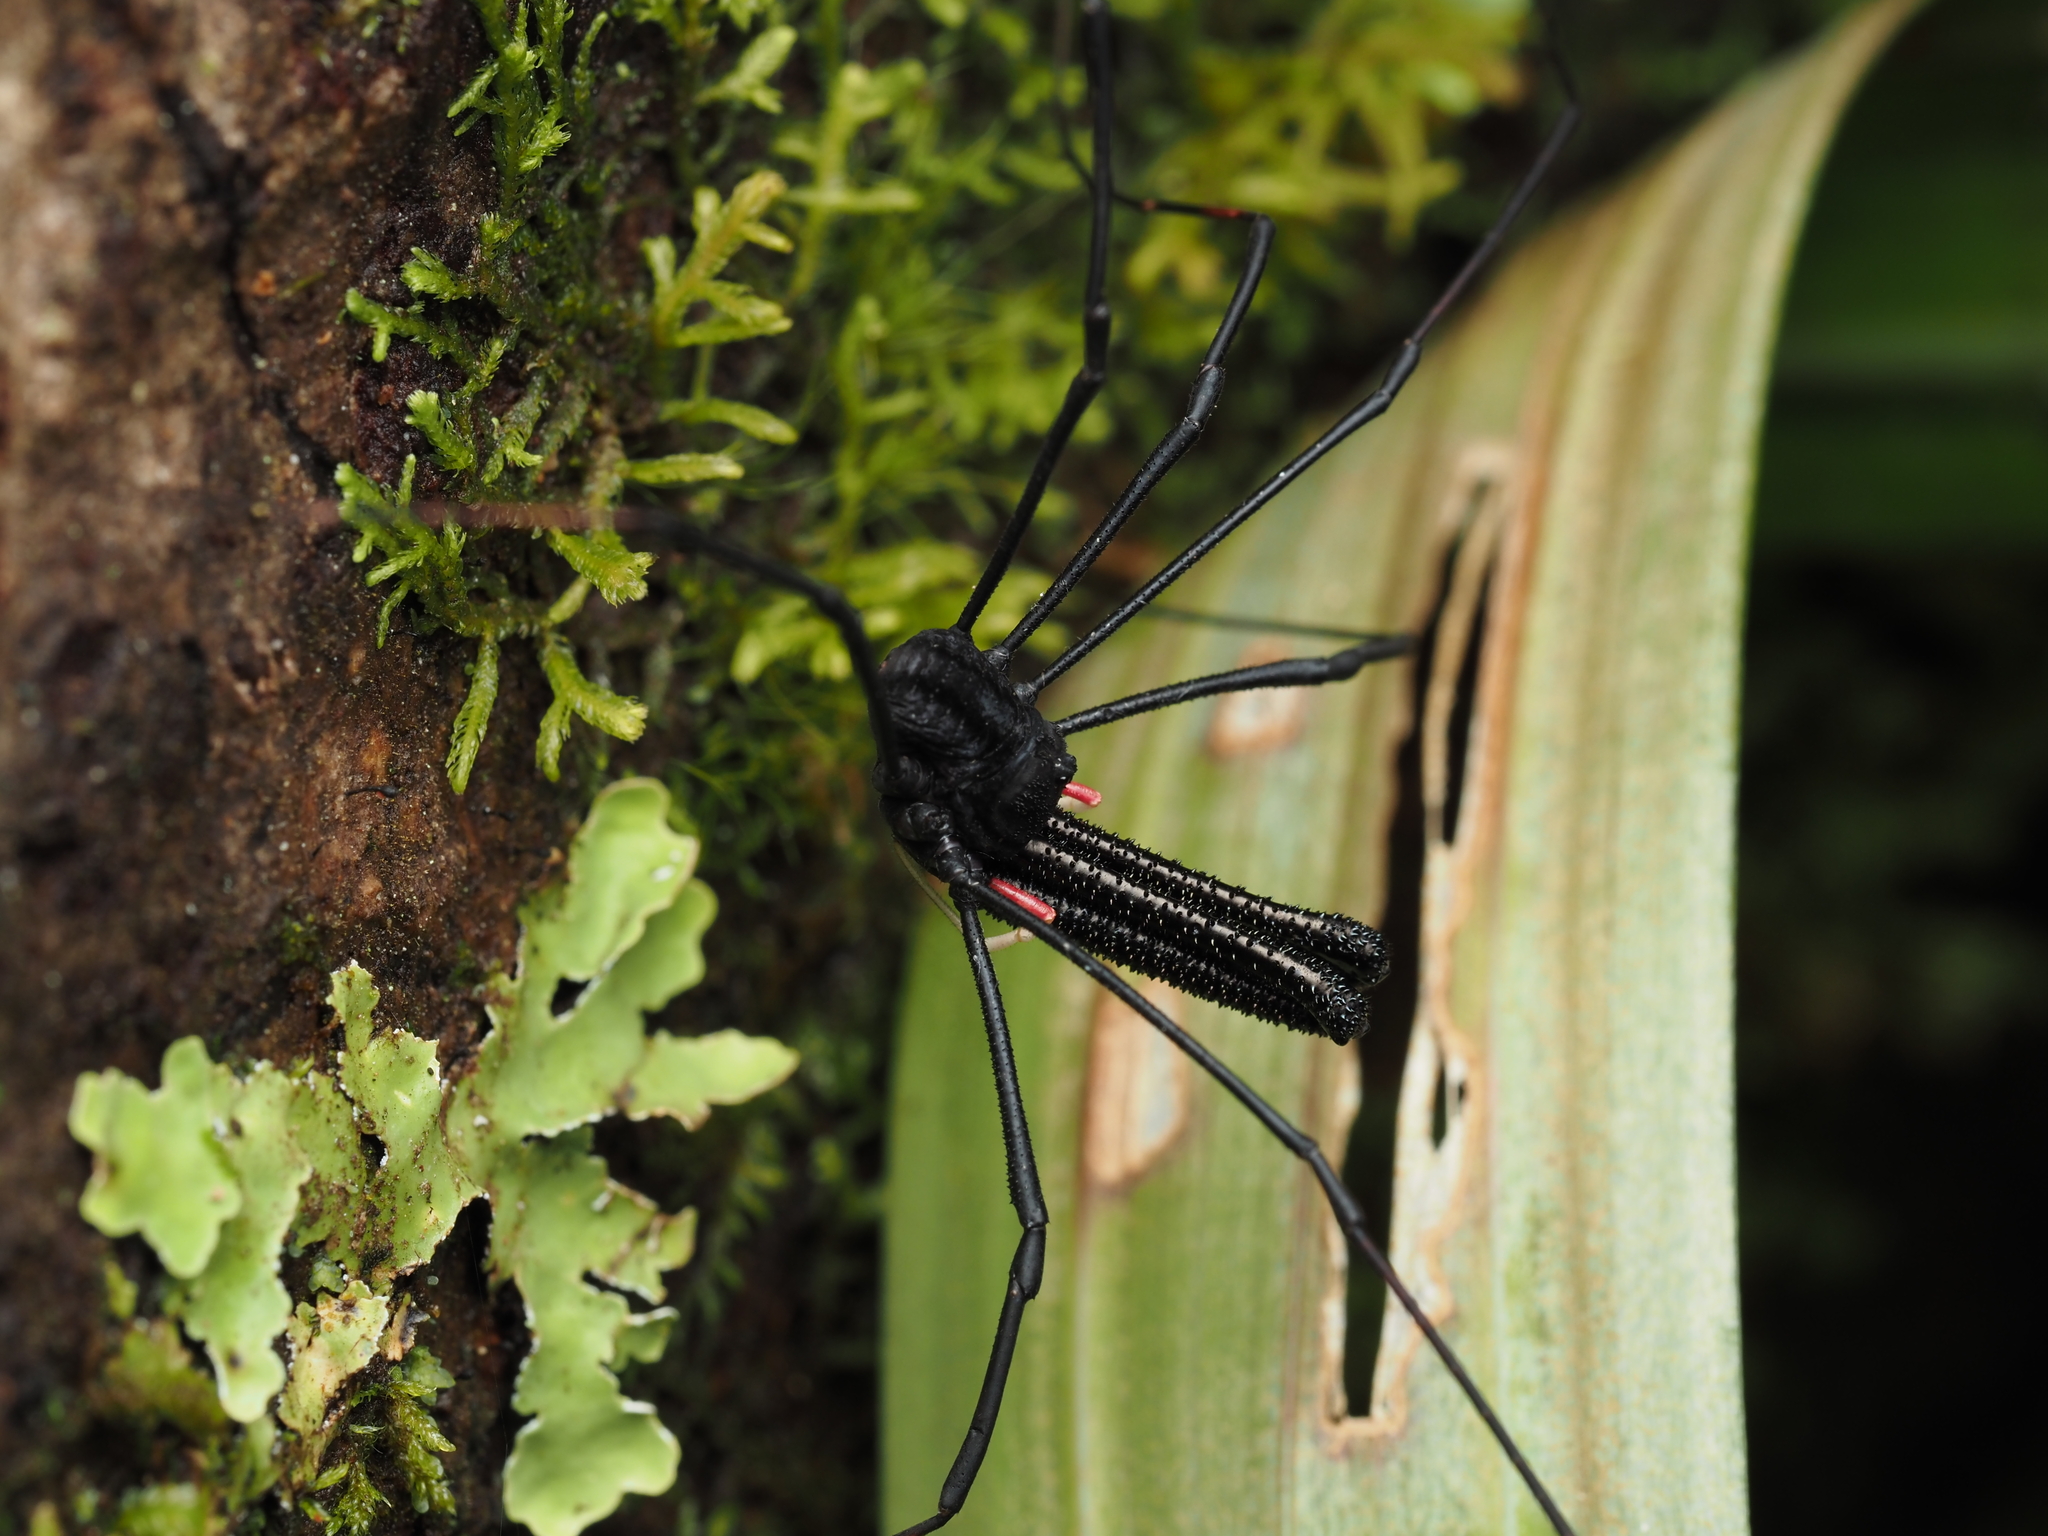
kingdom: Animalia
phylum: Arthropoda
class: Arachnida
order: Opiliones
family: Neopilionidae
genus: Forsteropsalis
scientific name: Forsteropsalis inconstans
